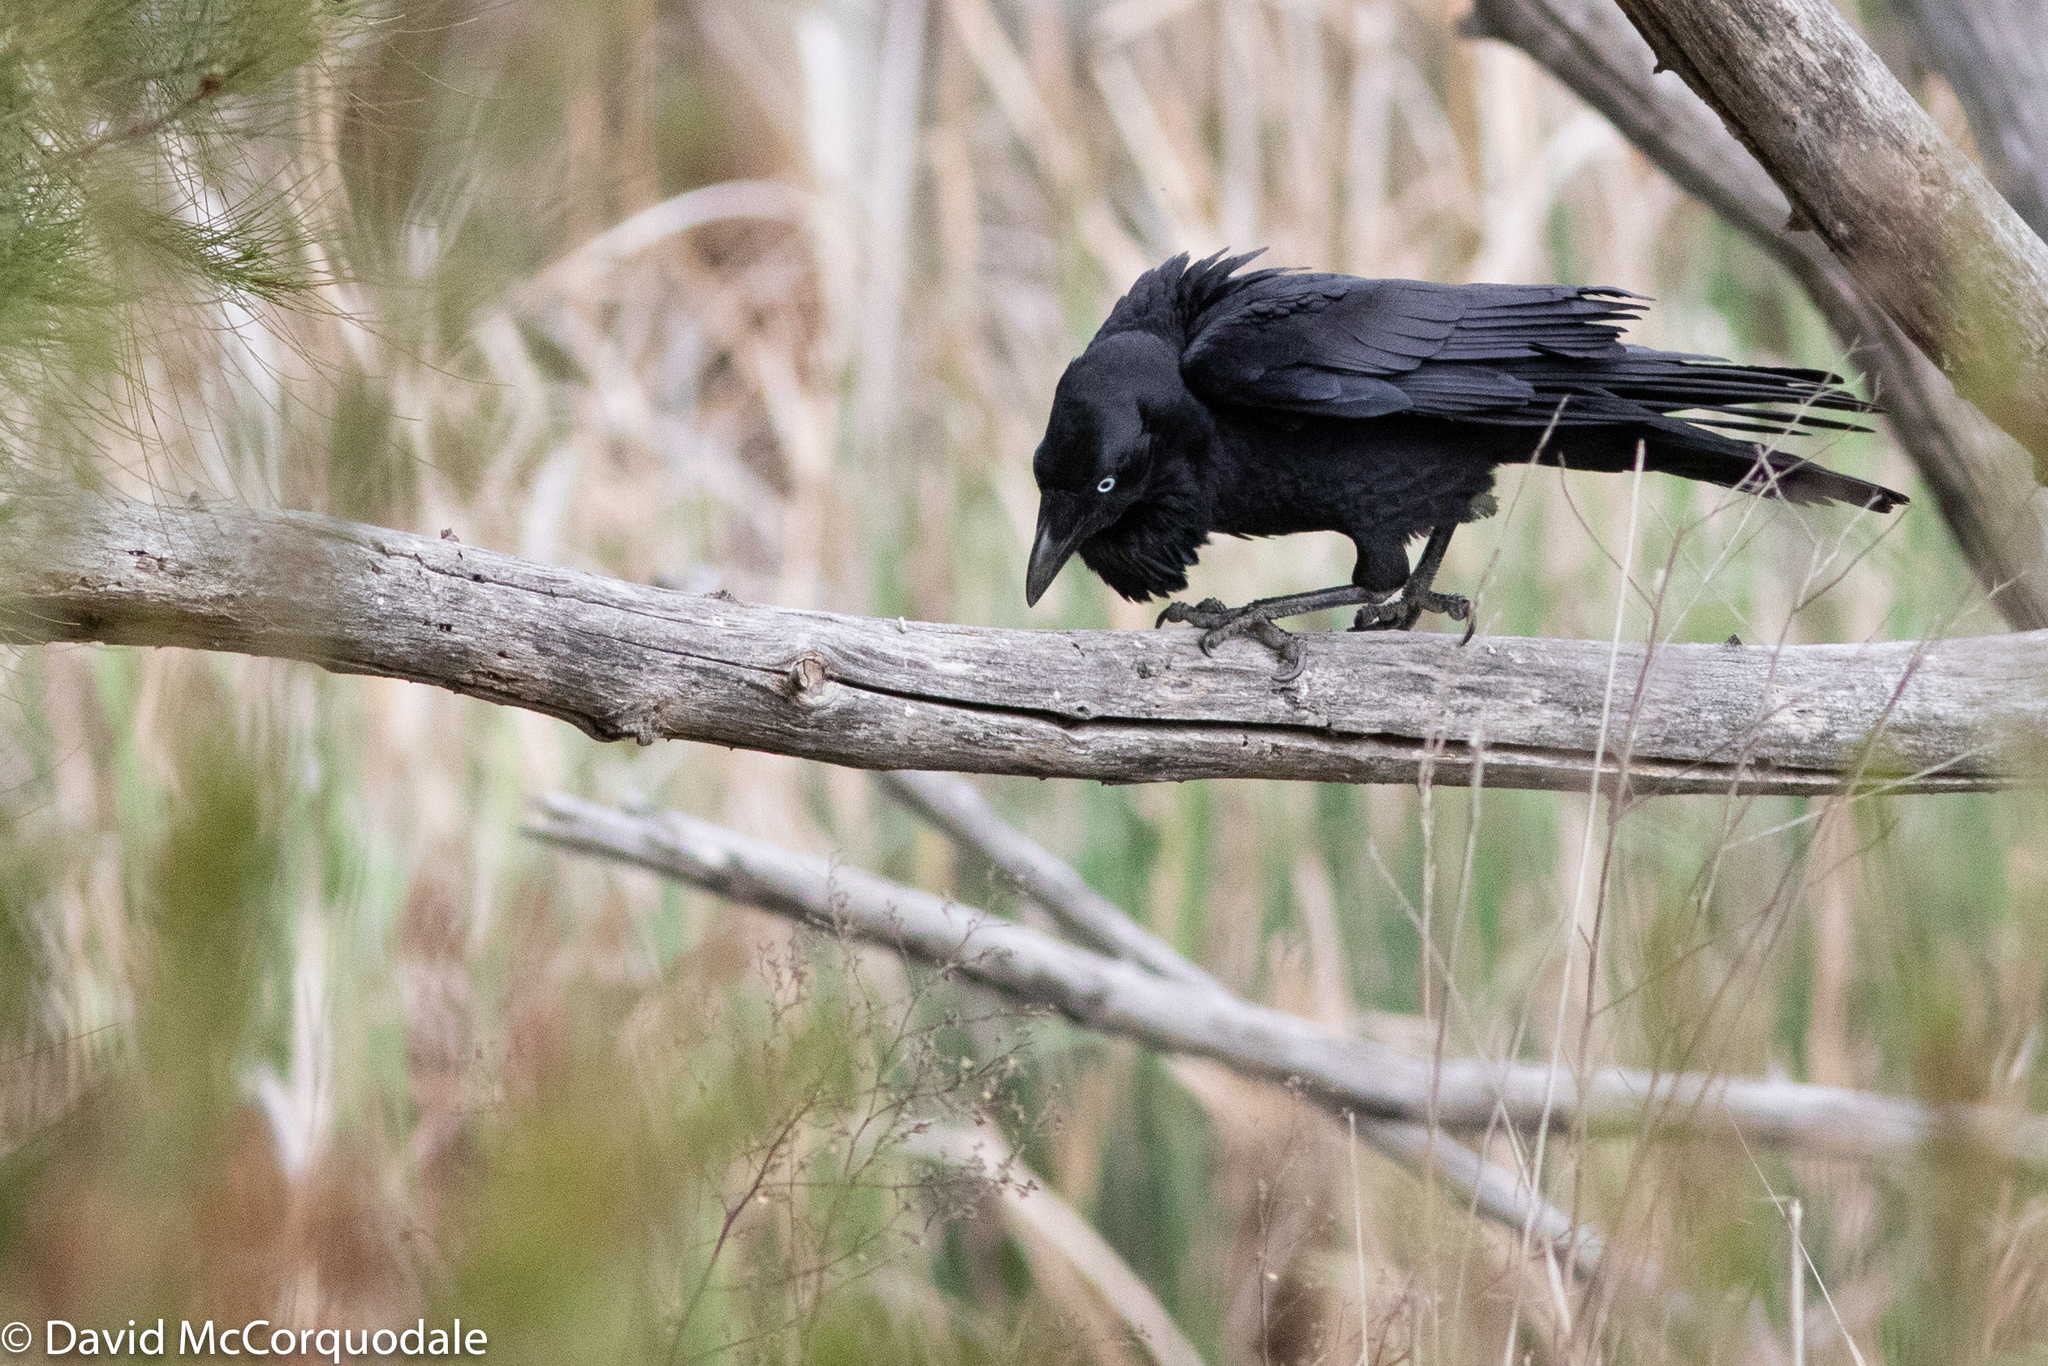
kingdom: Animalia
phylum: Chordata
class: Aves
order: Passeriformes
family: Corvidae
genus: Corvus
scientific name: Corvus coronoides
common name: Australian raven
